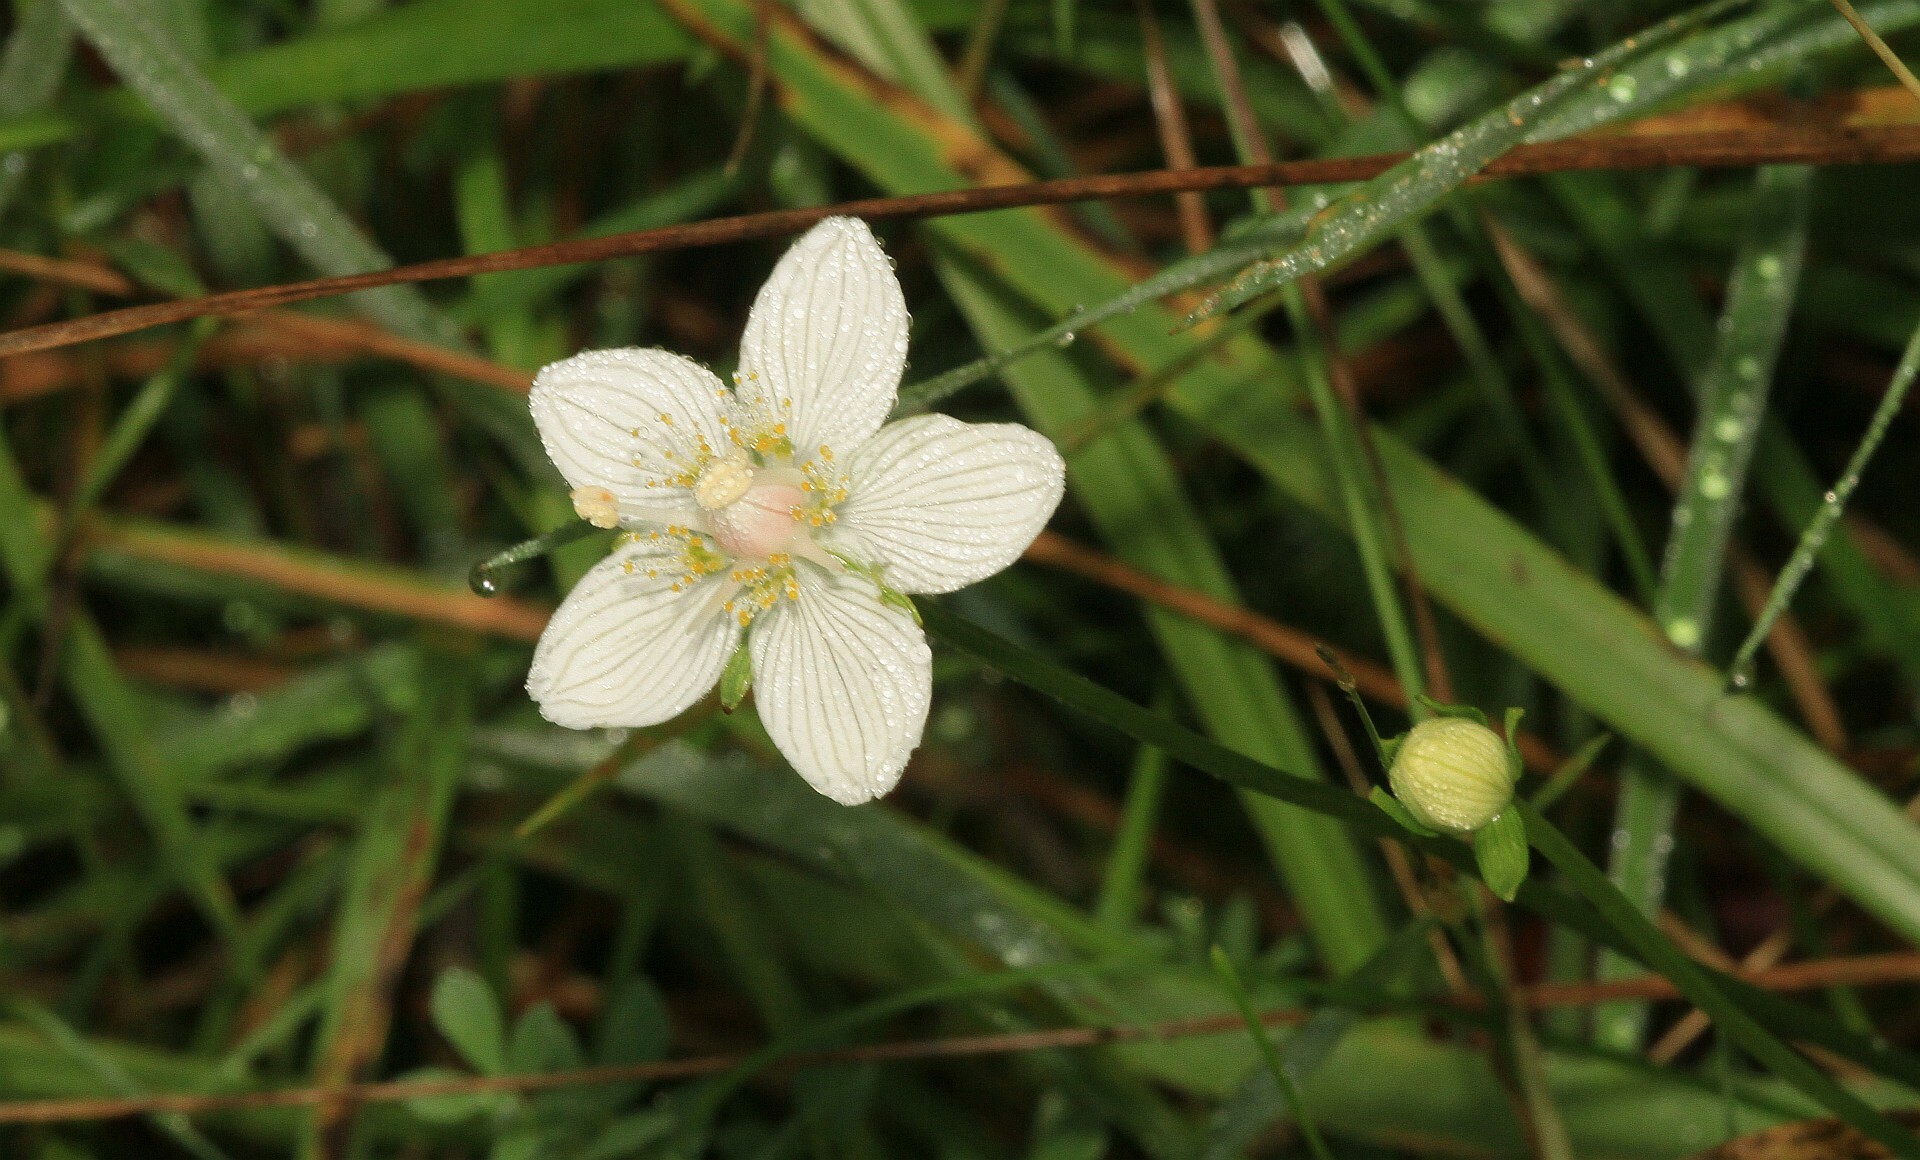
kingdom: Plantae
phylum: Tracheophyta
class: Magnoliopsida
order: Celastrales
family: Parnassiaceae
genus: Parnassia
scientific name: Parnassia palustris
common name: Grass-of-parnassus
